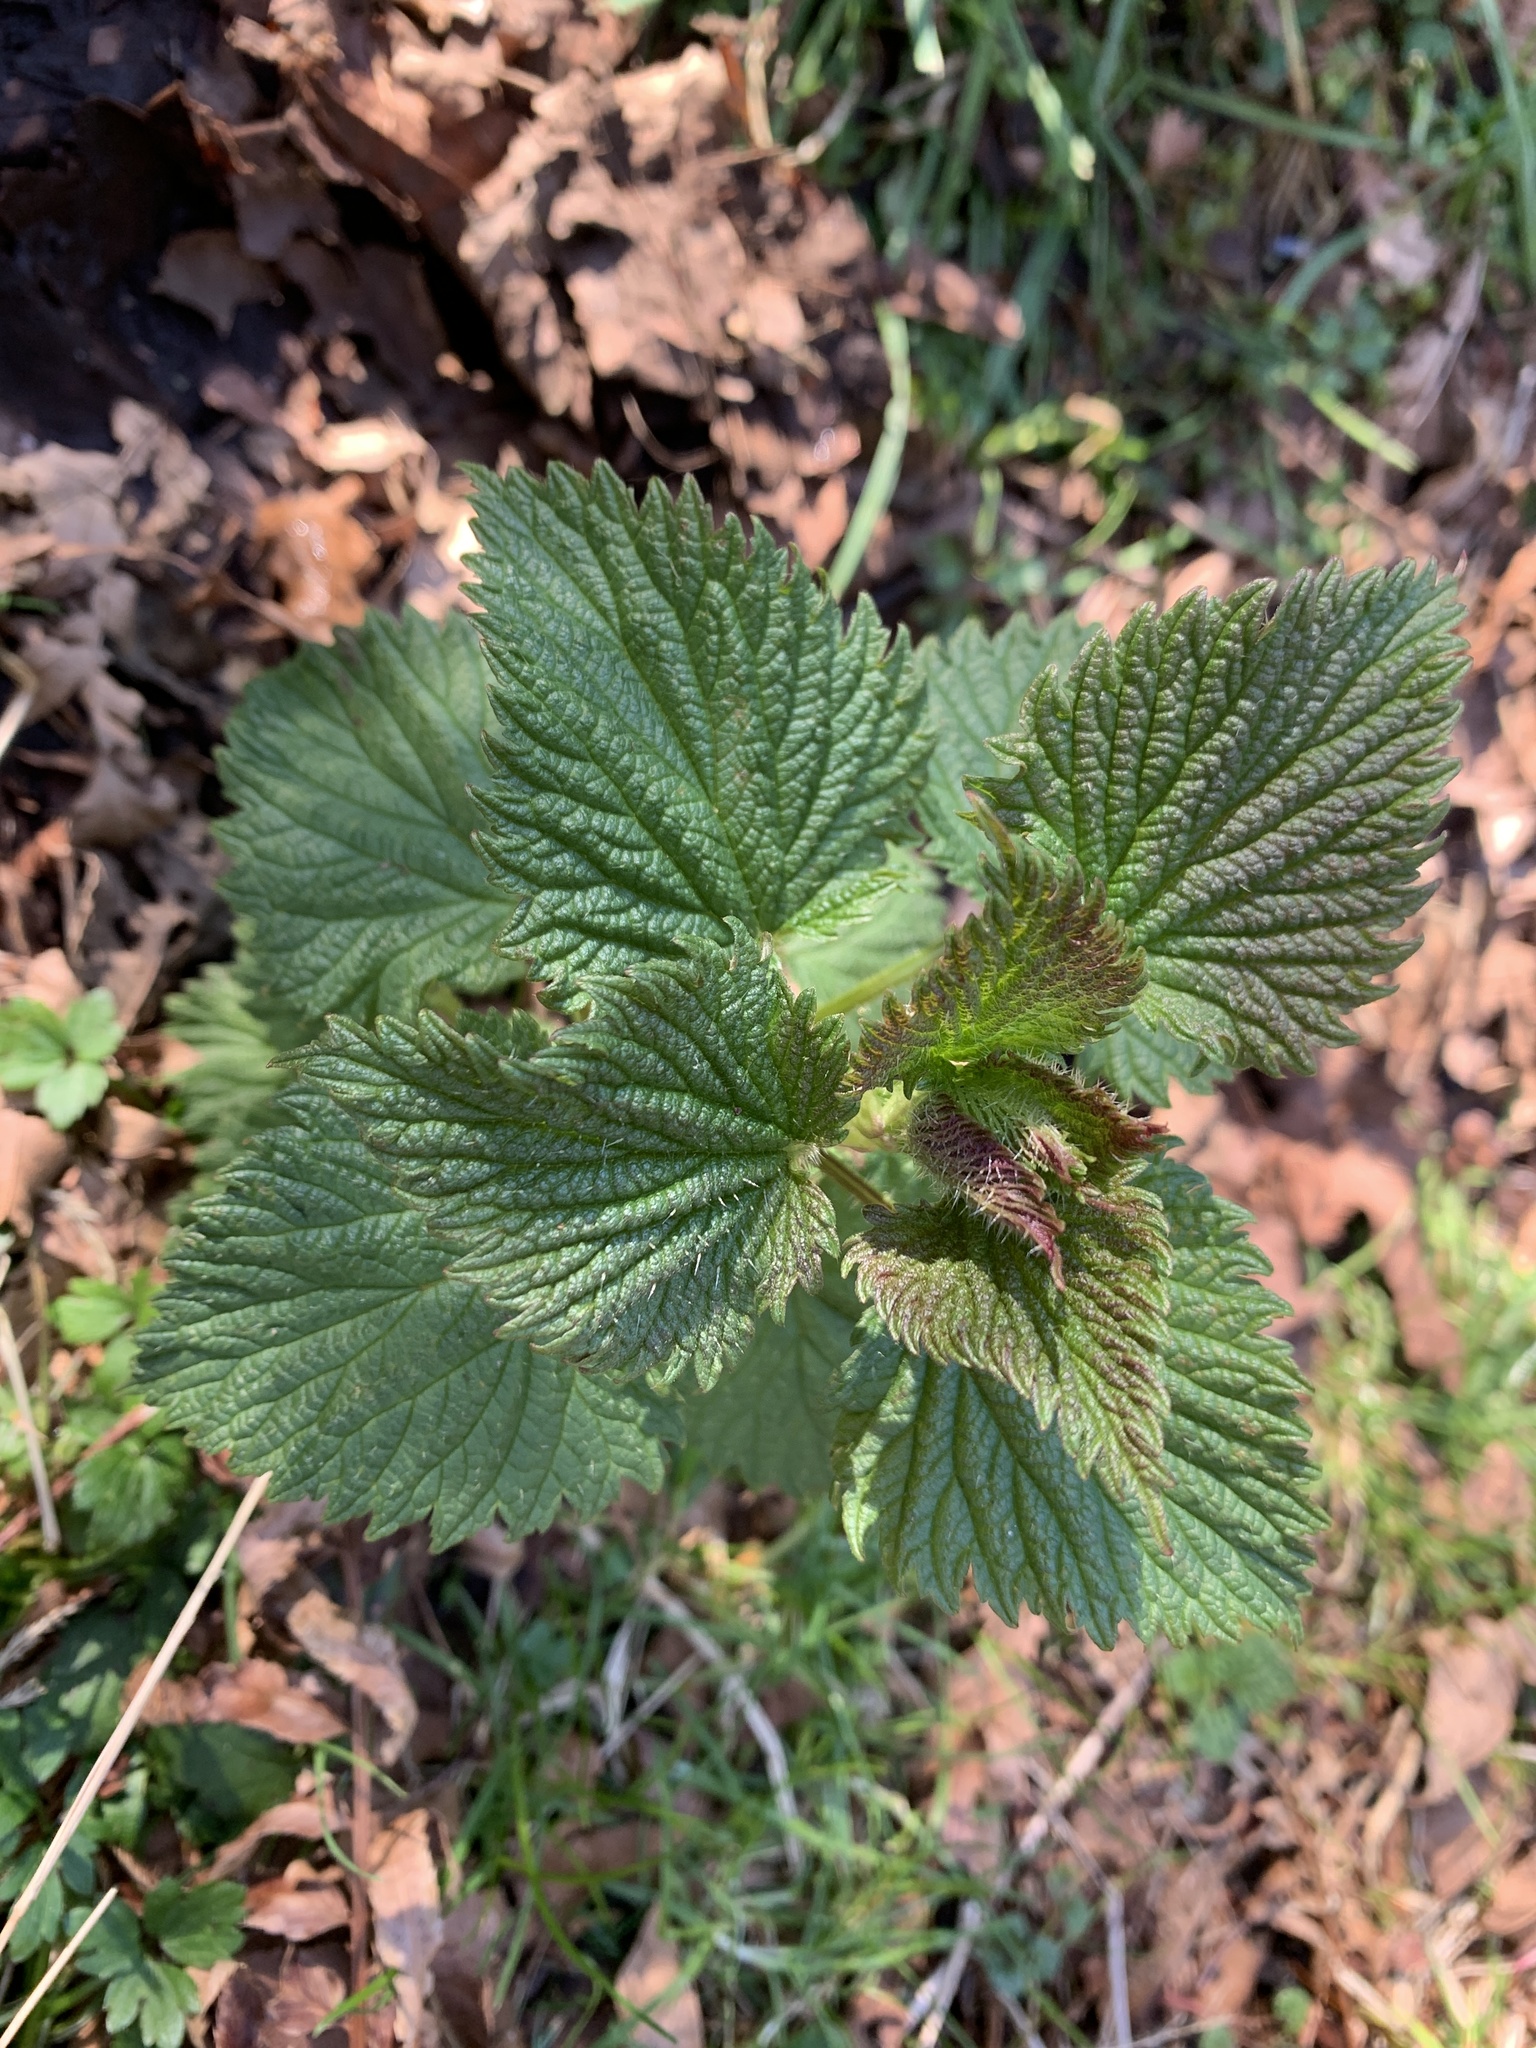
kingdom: Plantae
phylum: Tracheophyta
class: Magnoliopsida
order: Rosales
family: Urticaceae
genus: Urtica
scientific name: Urtica dioica
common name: Common nettle
